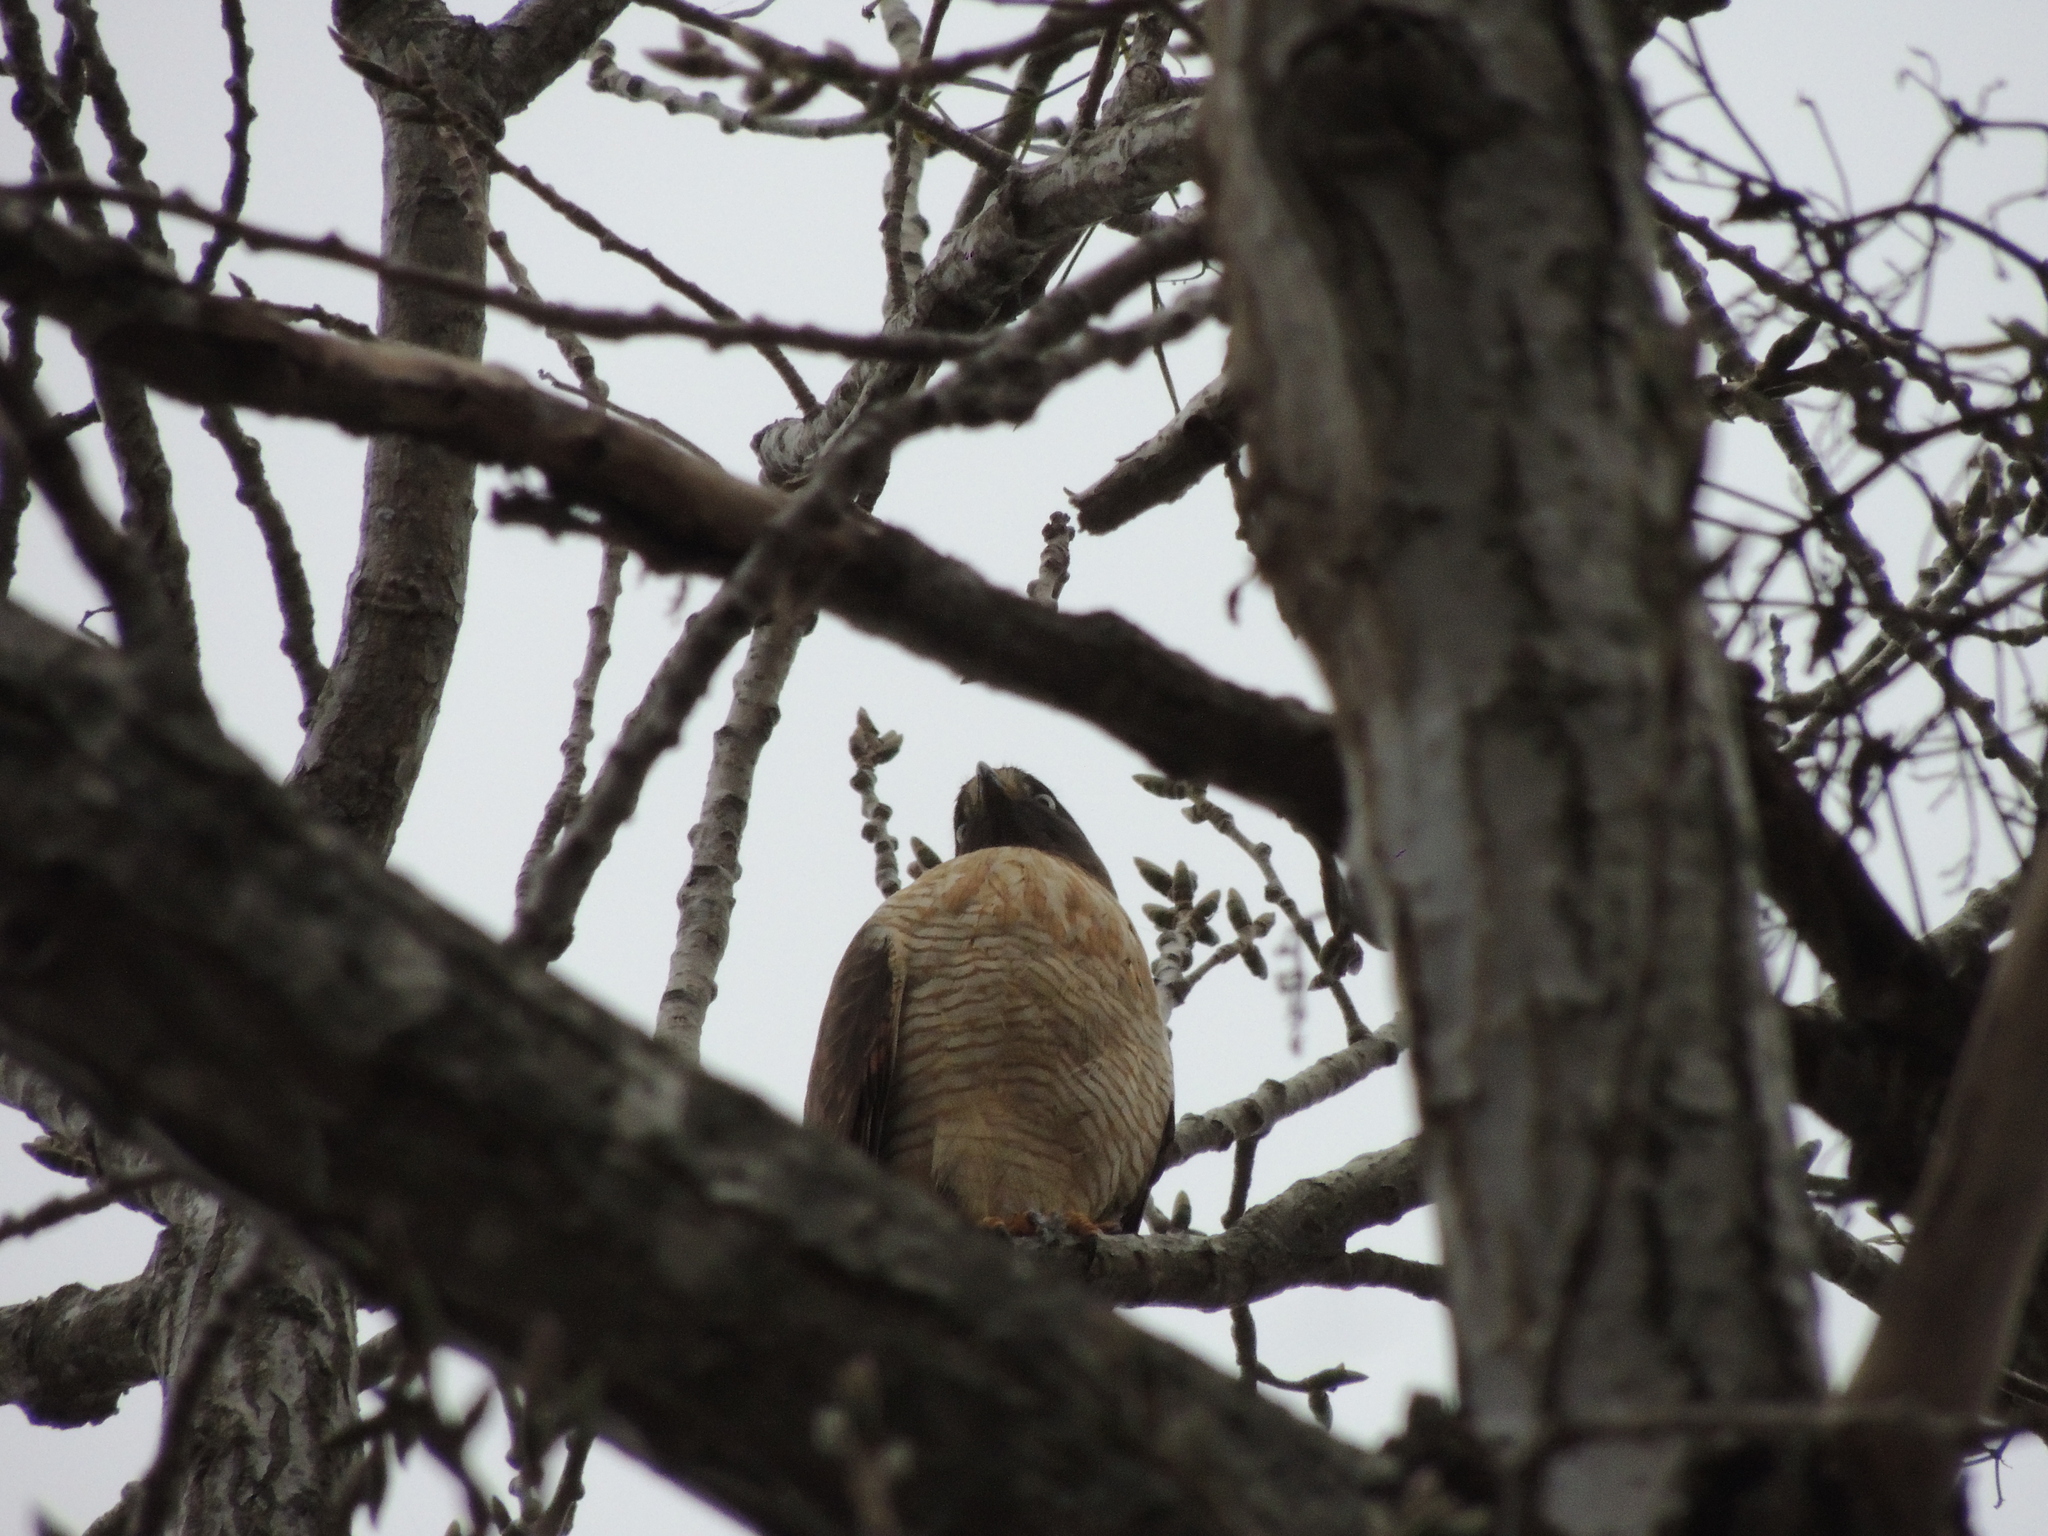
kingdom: Animalia
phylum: Chordata
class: Aves
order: Accipitriformes
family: Accipitridae
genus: Rupornis
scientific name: Rupornis magnirostris
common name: Roadside hawk
